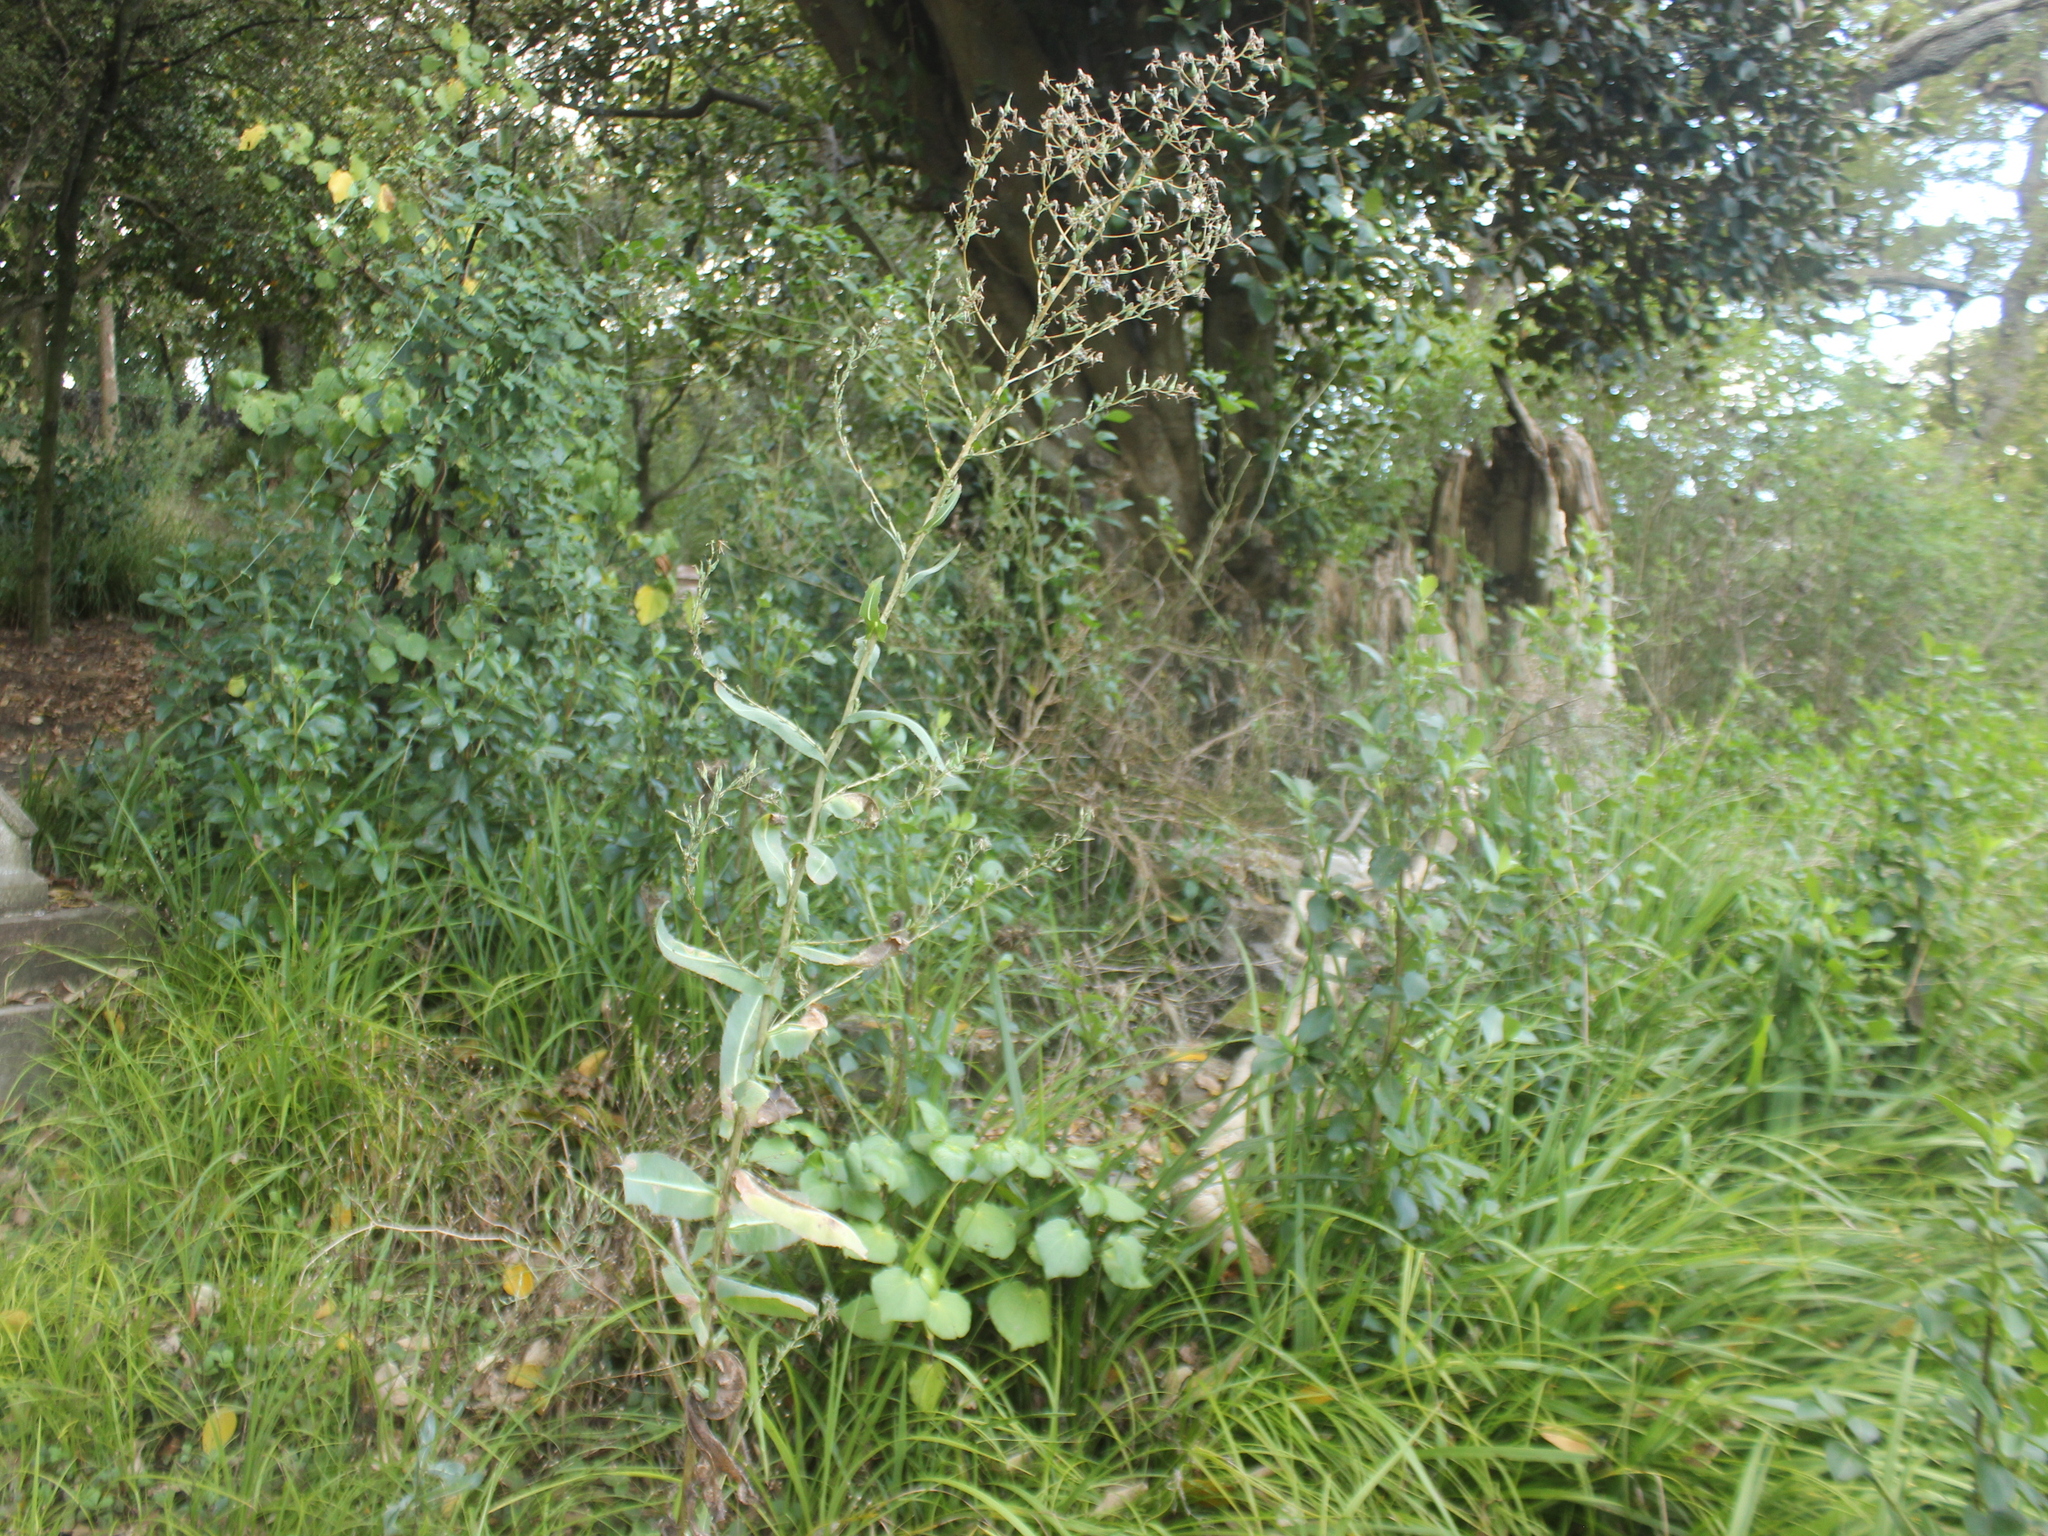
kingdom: Plantae
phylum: Tracheophyta
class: Magnoliopsida
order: Asterales
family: Asteraceae
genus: Lactuca
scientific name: Lactuca serriola
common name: Prickly lettuce
